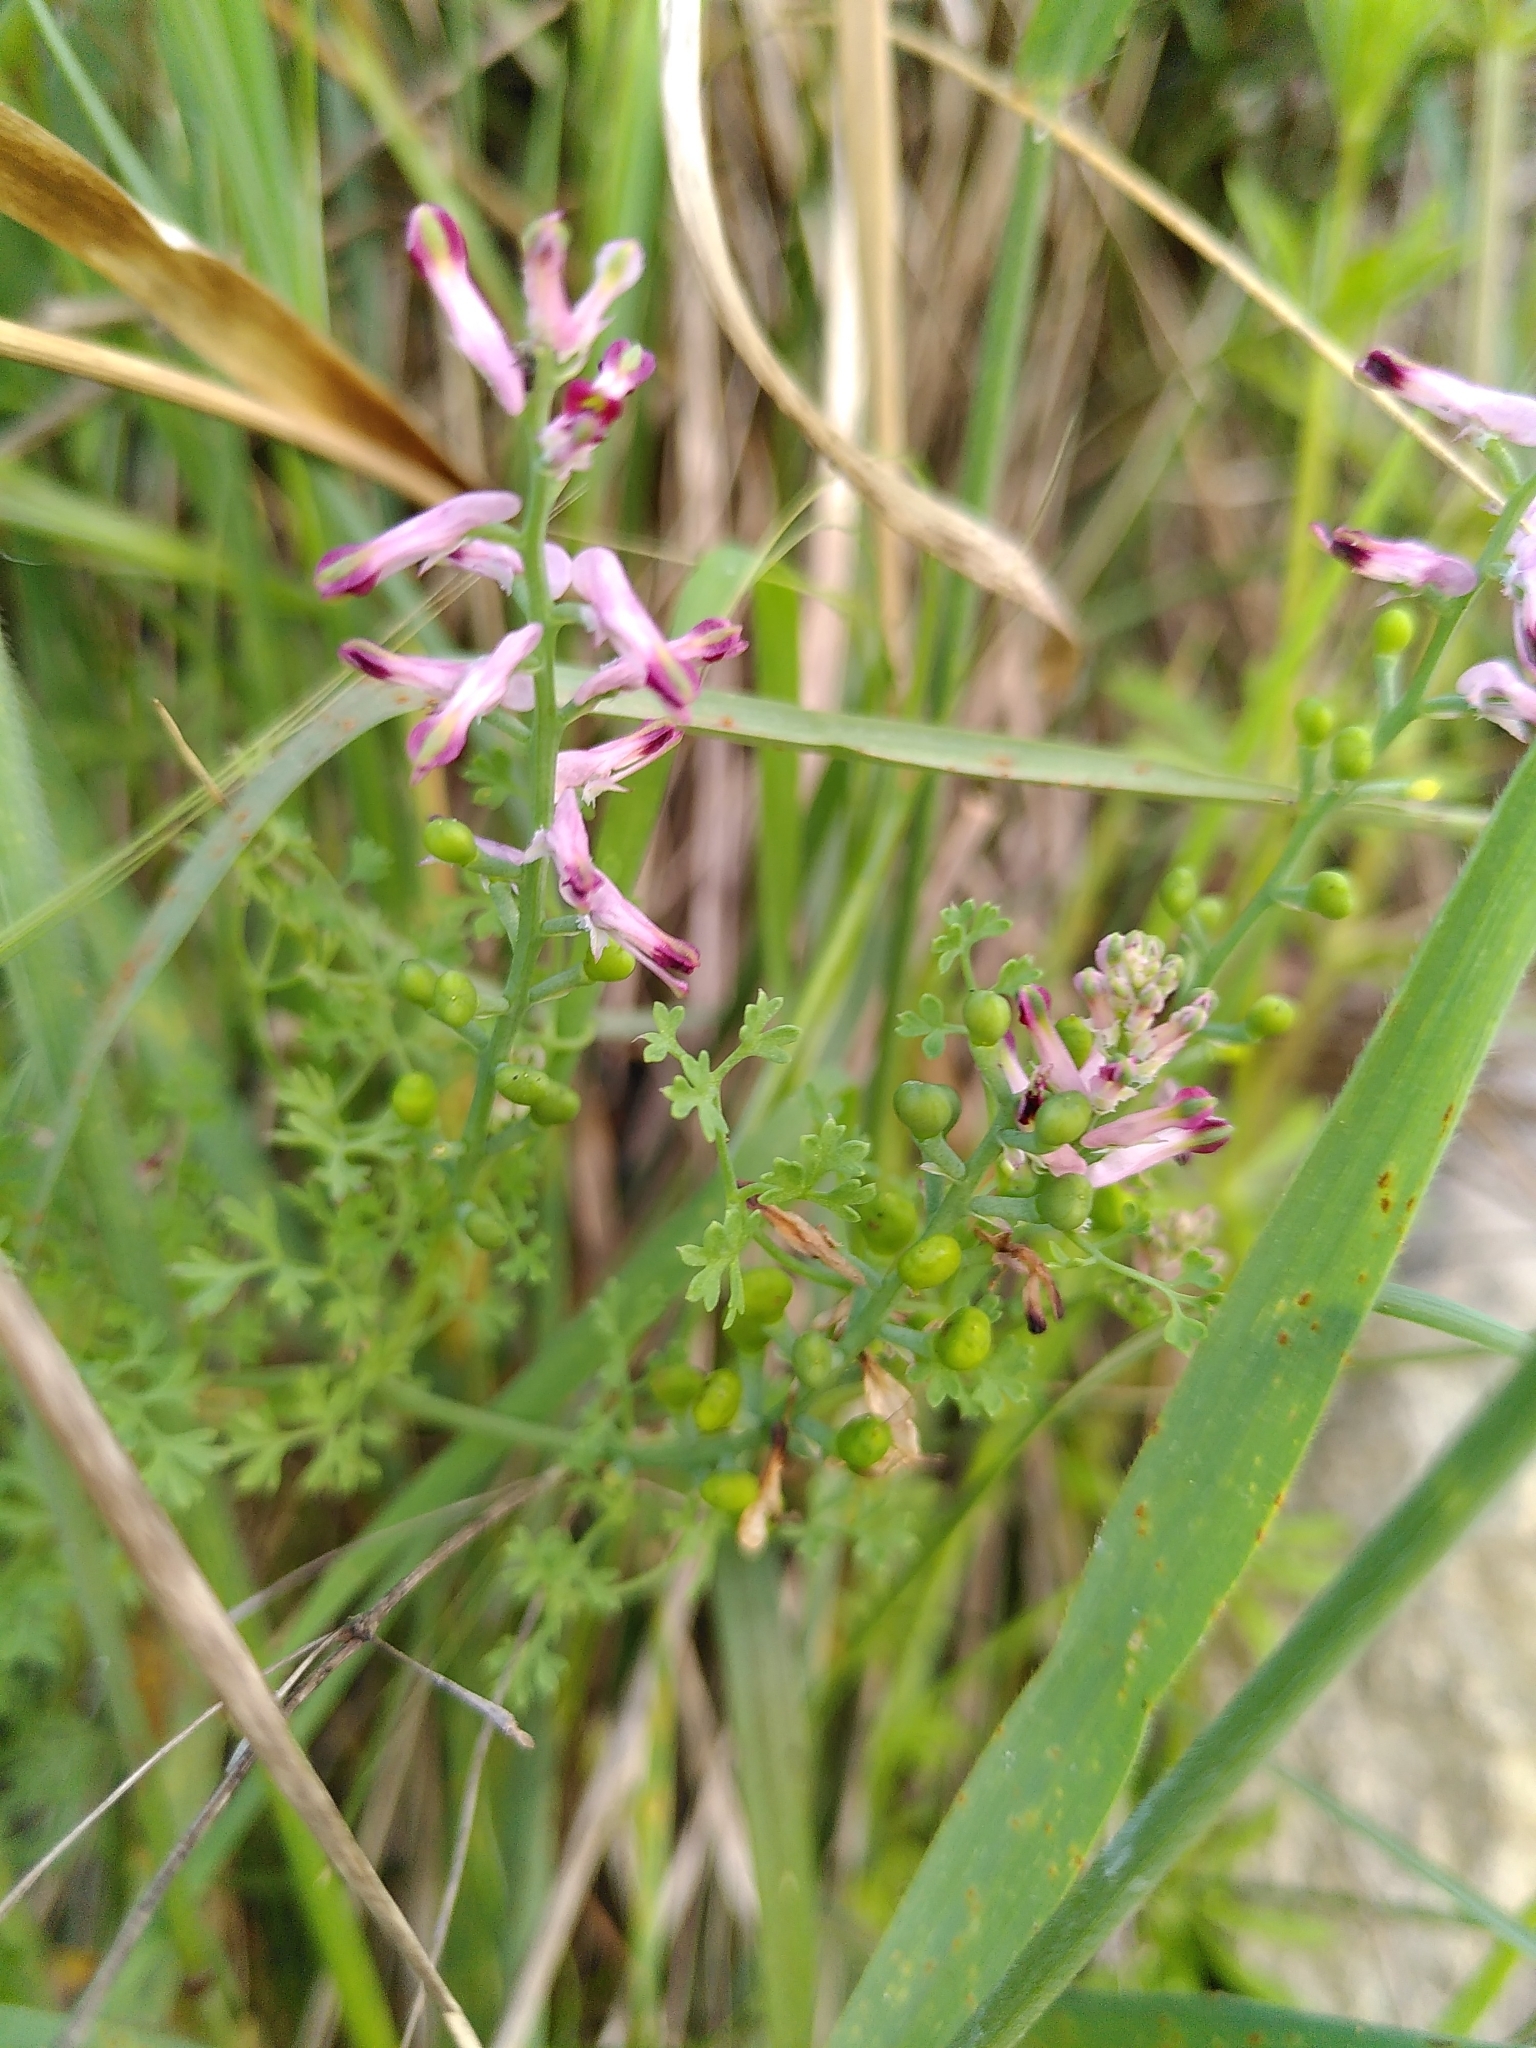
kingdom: Plantae
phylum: Tracheophyta
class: Magnoliopsida
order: Ranunculales
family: Papaveraceae
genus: Fumaria
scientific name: Fumaria officinalis
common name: Common fumitory
